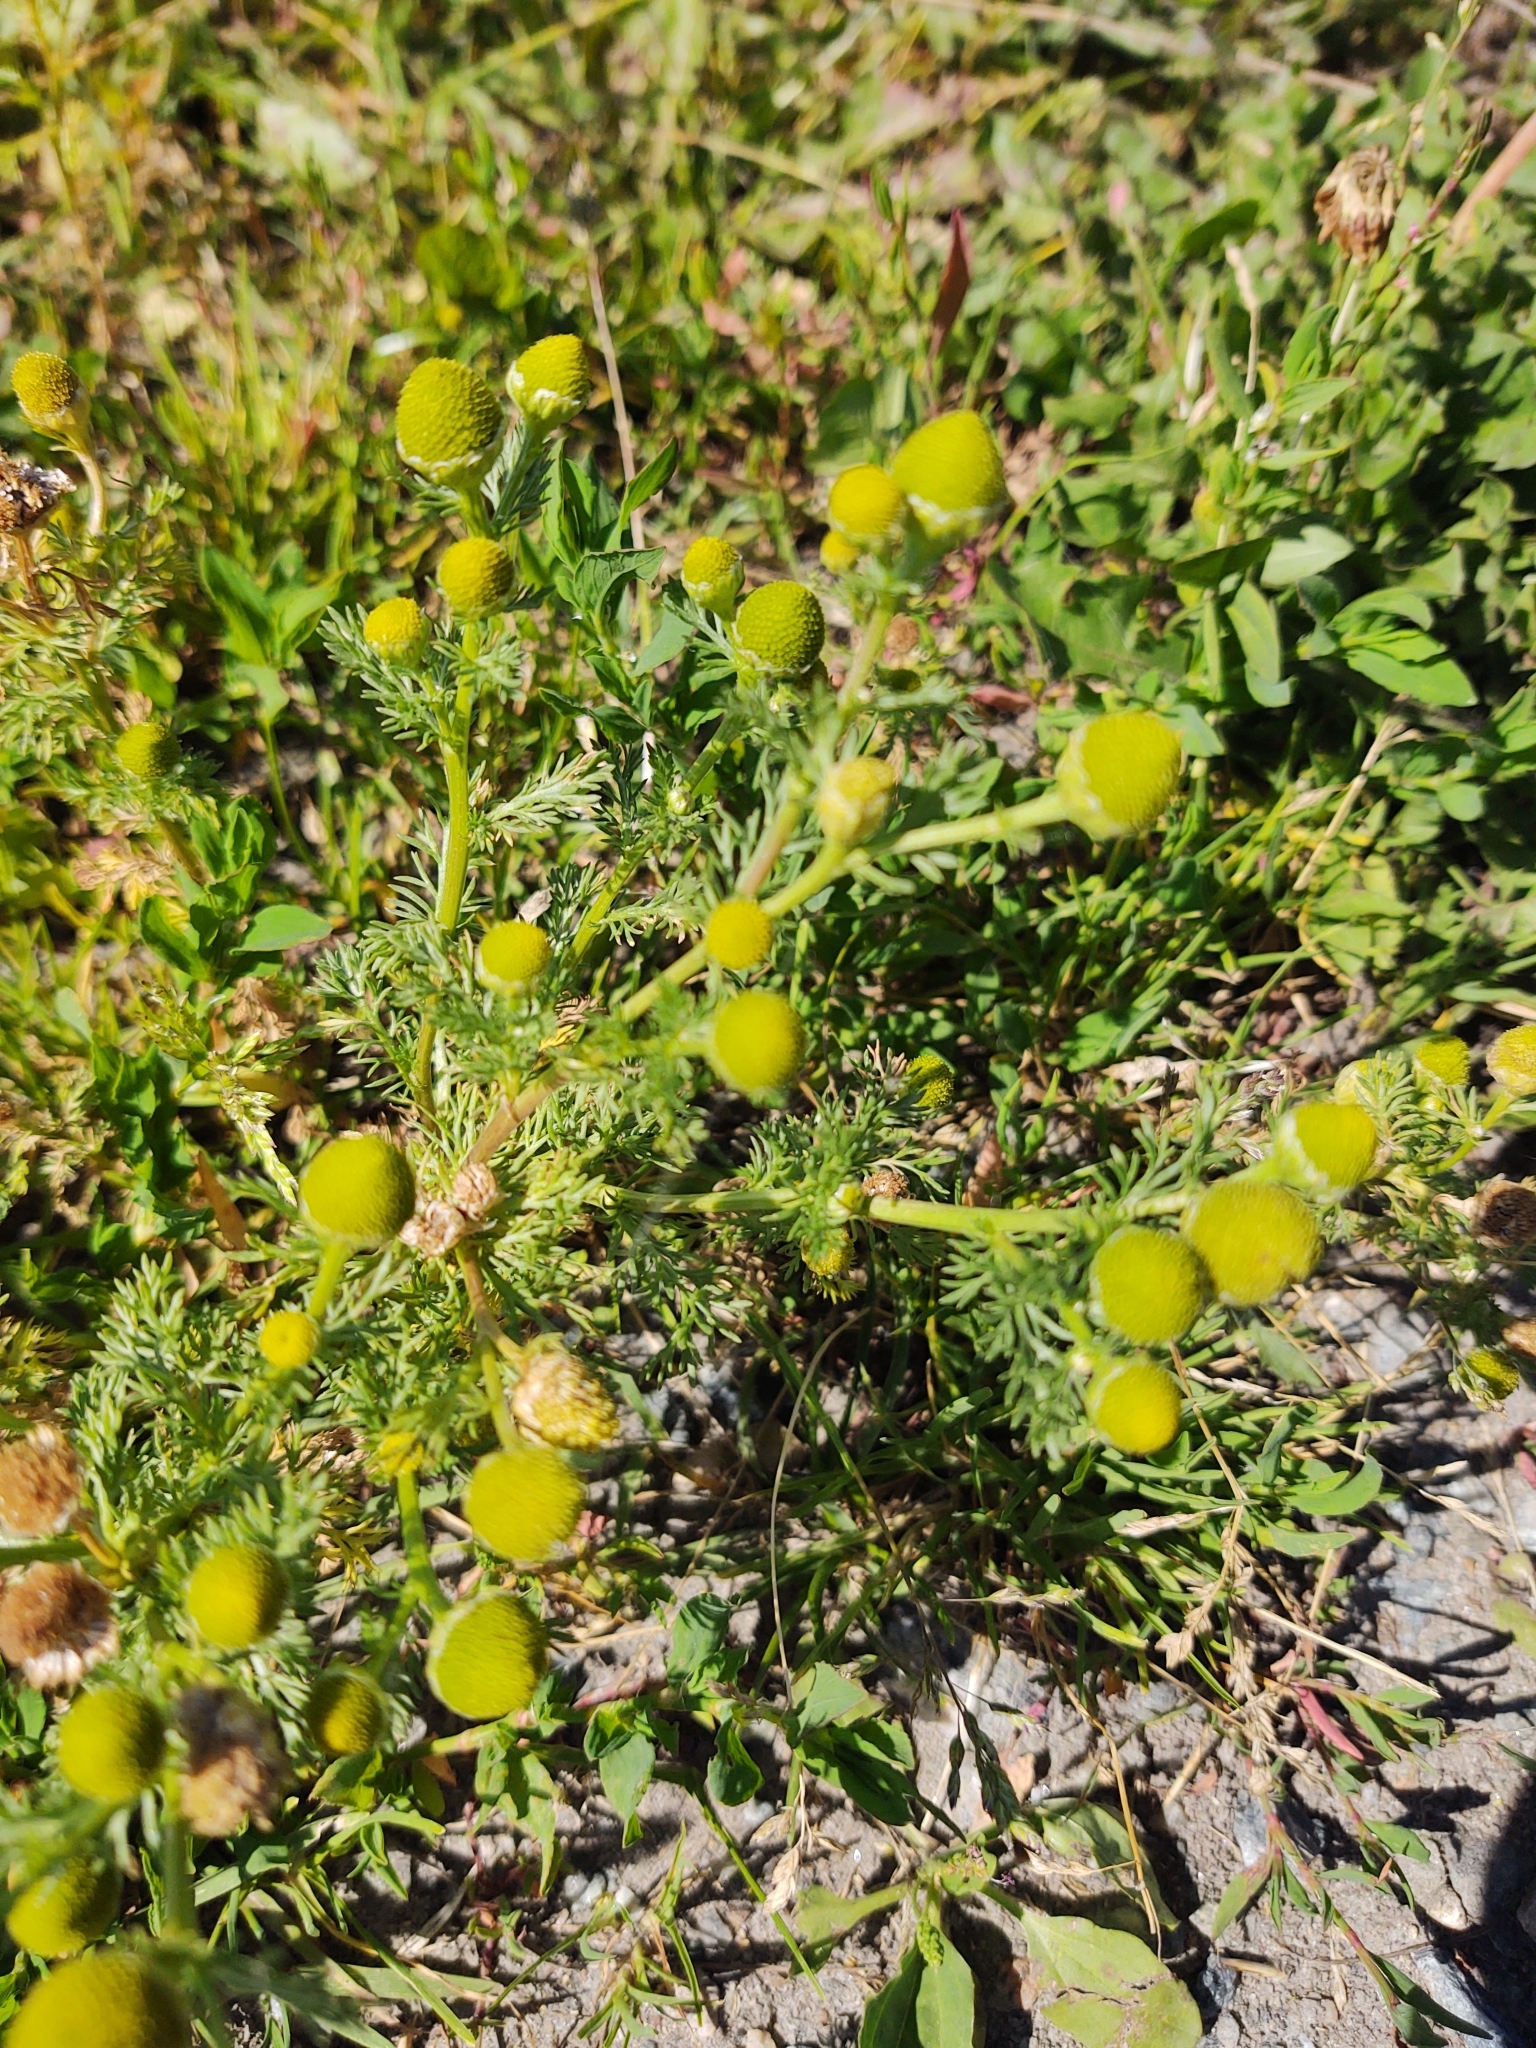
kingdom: Plantae
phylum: Tracheophyta
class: Magnoliopsida
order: Asterales
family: Asteraceae
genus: Matricaria
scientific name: Matricaria discoidea
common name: Disc mayweed
